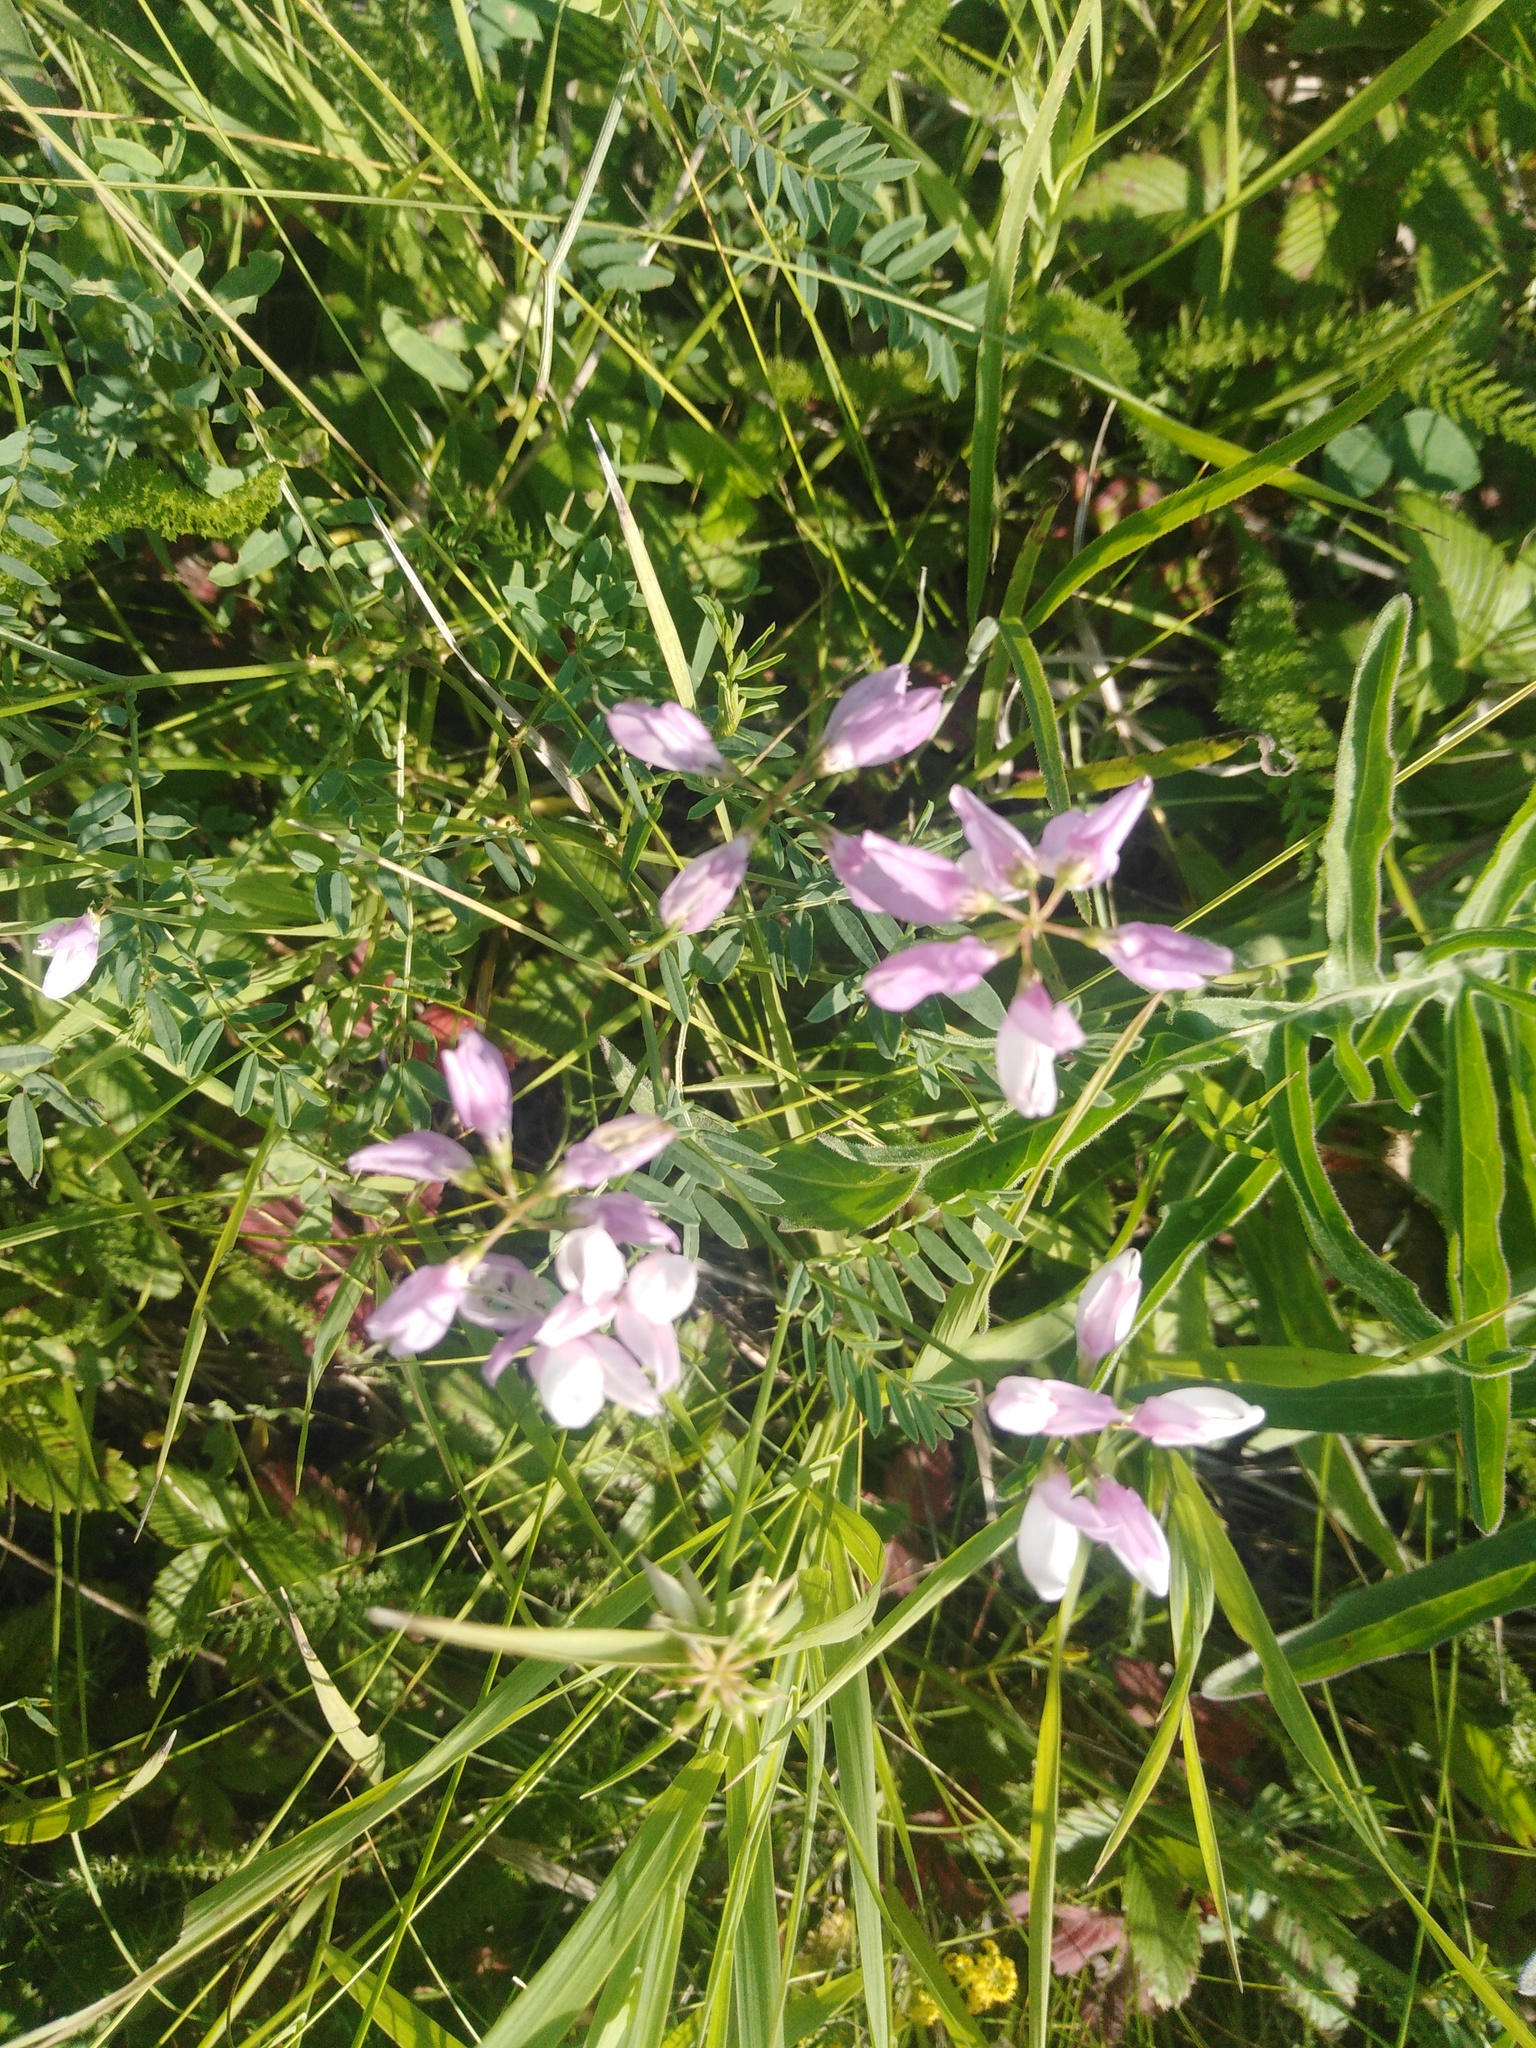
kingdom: Plantae
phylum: Tracheophyta
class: Magnoliopsida
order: Fabales
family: Fabaceae
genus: Coronilla
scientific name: Coronilla varia
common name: Crownvetch
